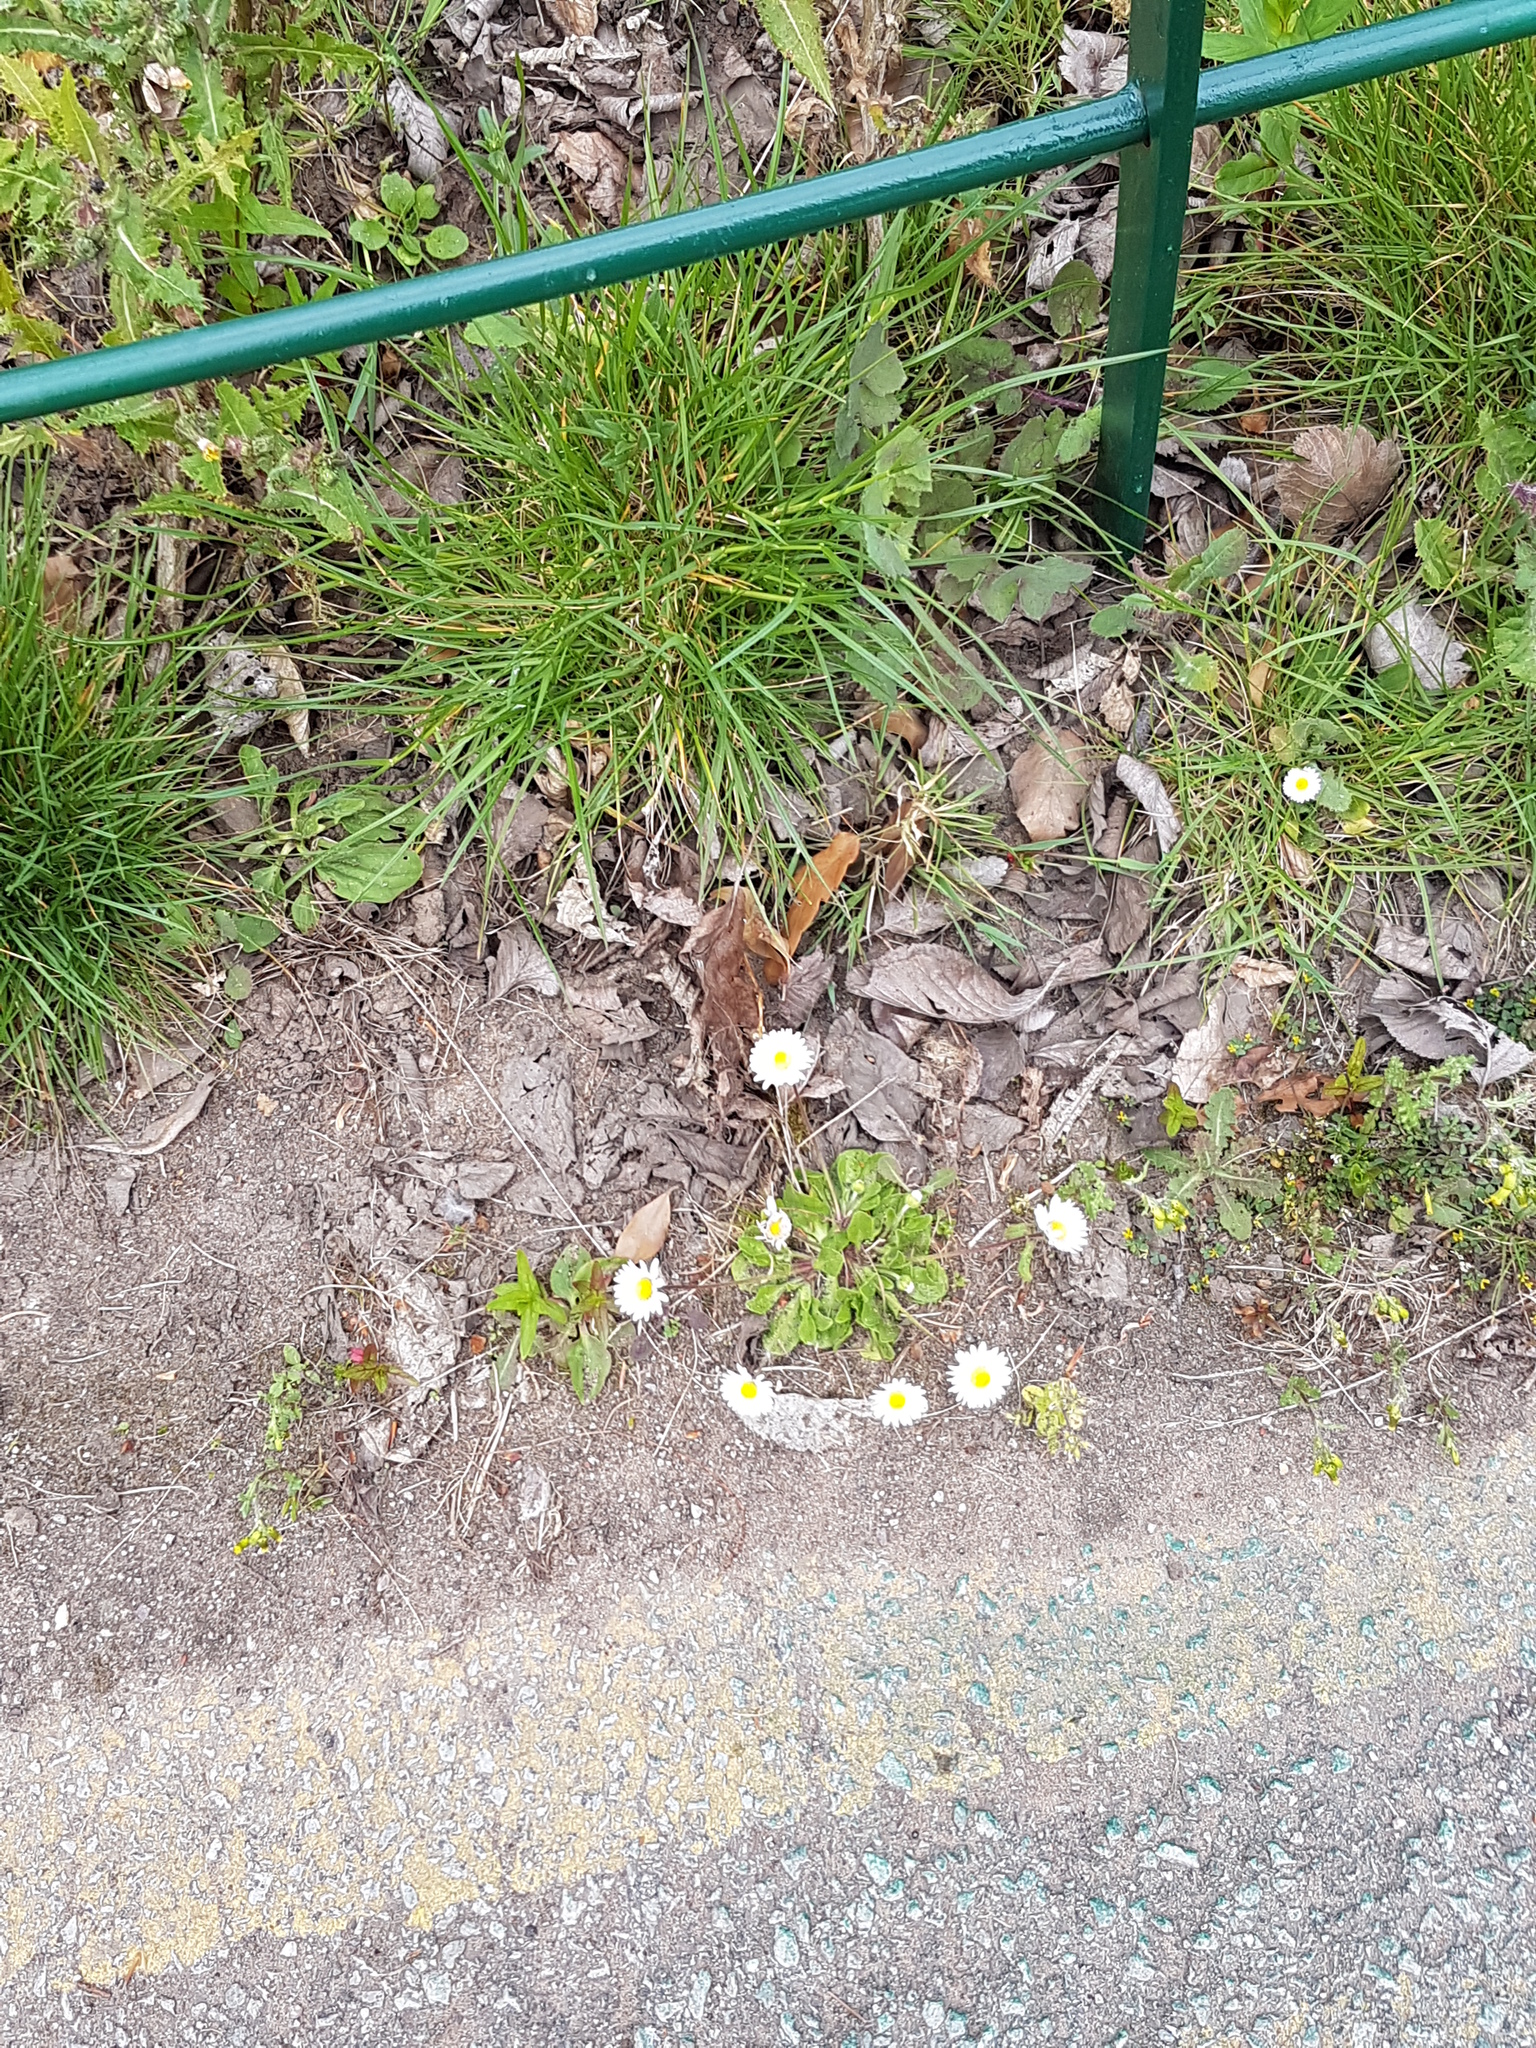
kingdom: Plantae
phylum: Tracheophyta
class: Magnoliopsida
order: Asterales
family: Asteraceae
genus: Bellis
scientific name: Bellis perennis
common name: Lawndaisy
